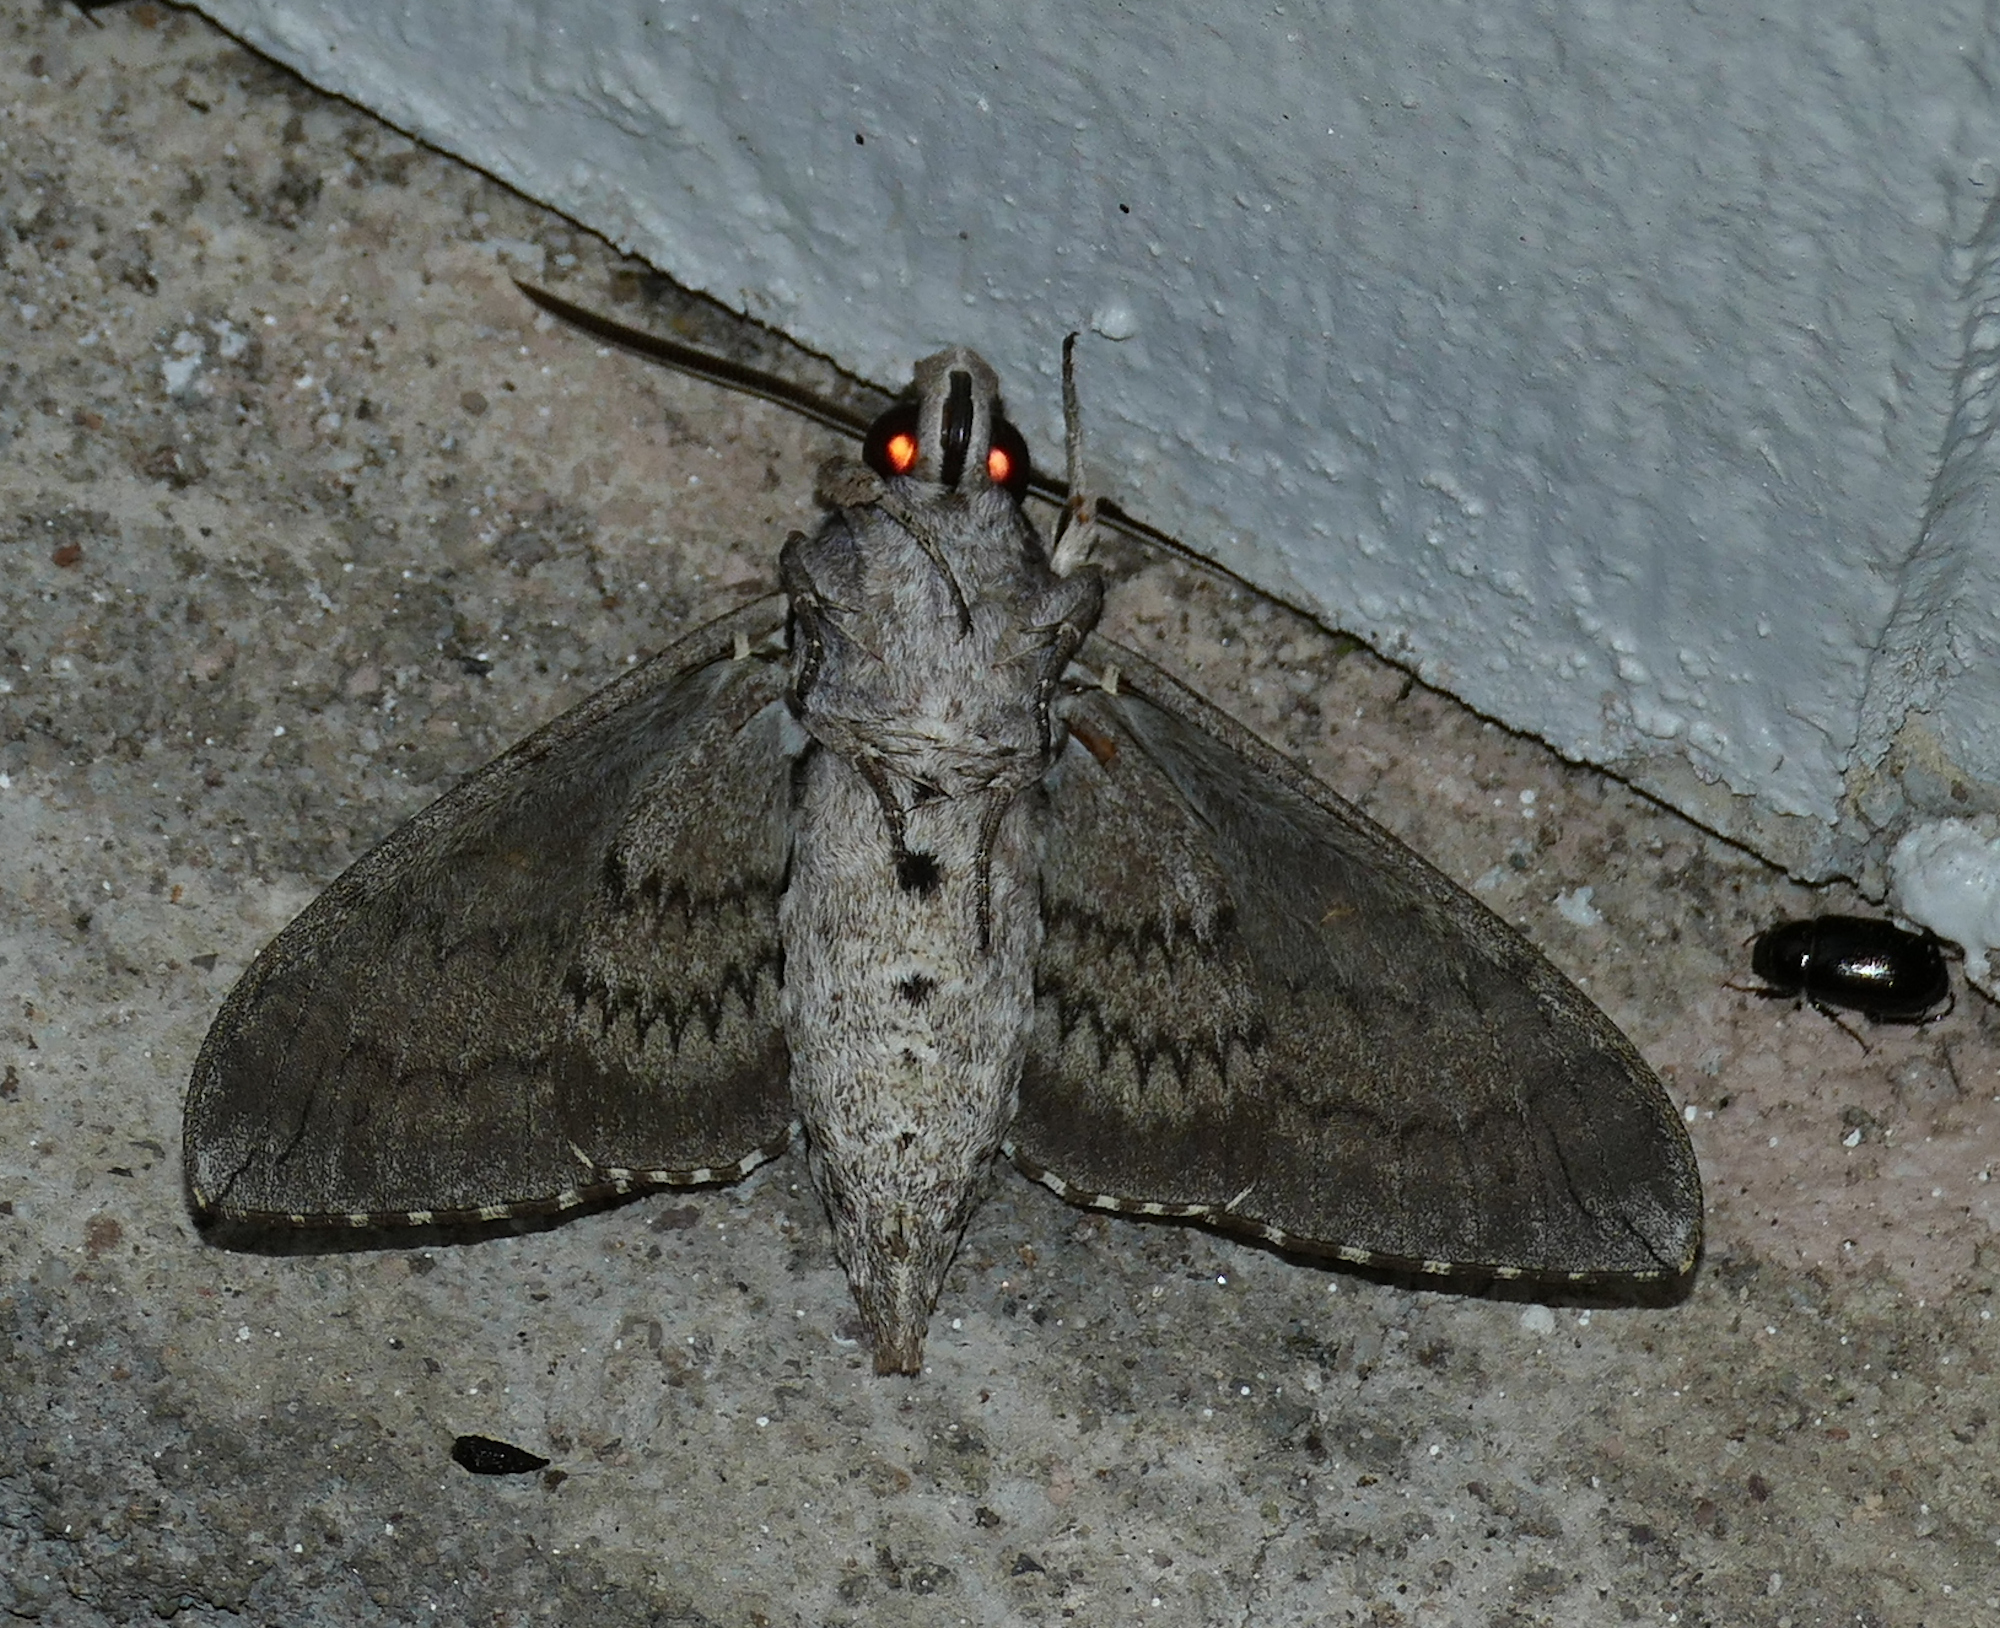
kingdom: Animalia
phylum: Arthropoda
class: Insecta
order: Lepidoptera
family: Sphingidae
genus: Manduca
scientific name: Manduca quinquemaculatus
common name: Five-spotted hawk-moth
